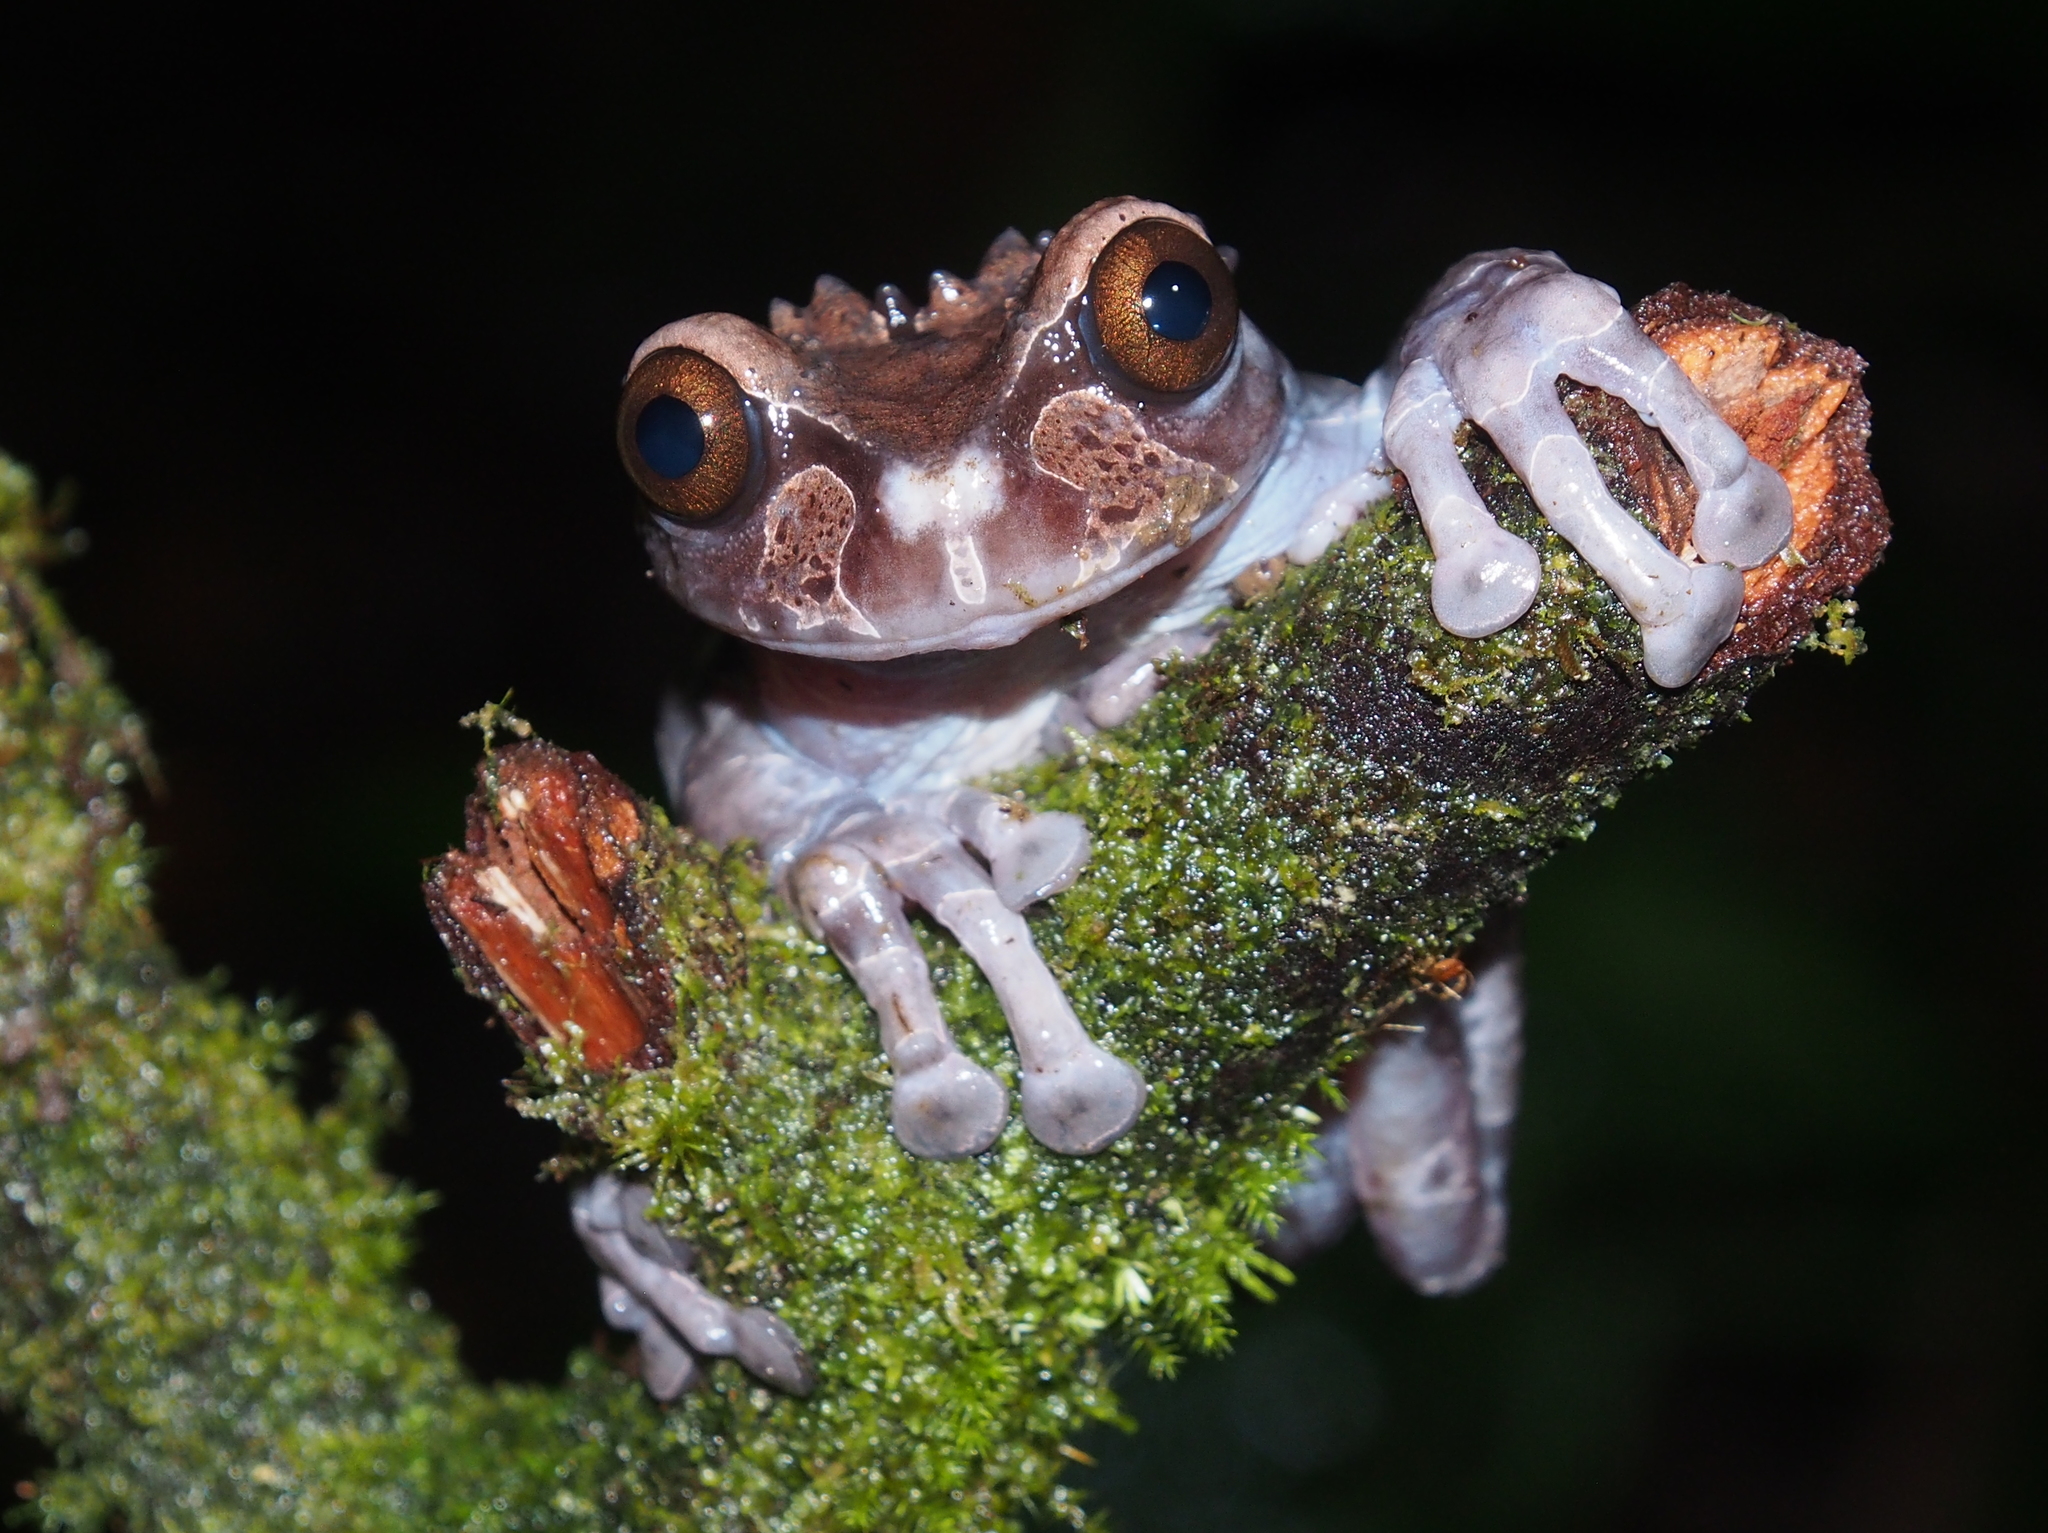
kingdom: Animalia
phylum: Chordata
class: Amphibia
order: Anura
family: Hylidae
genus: Triprion
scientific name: Triprion spinosus
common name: Coronated treefrog
